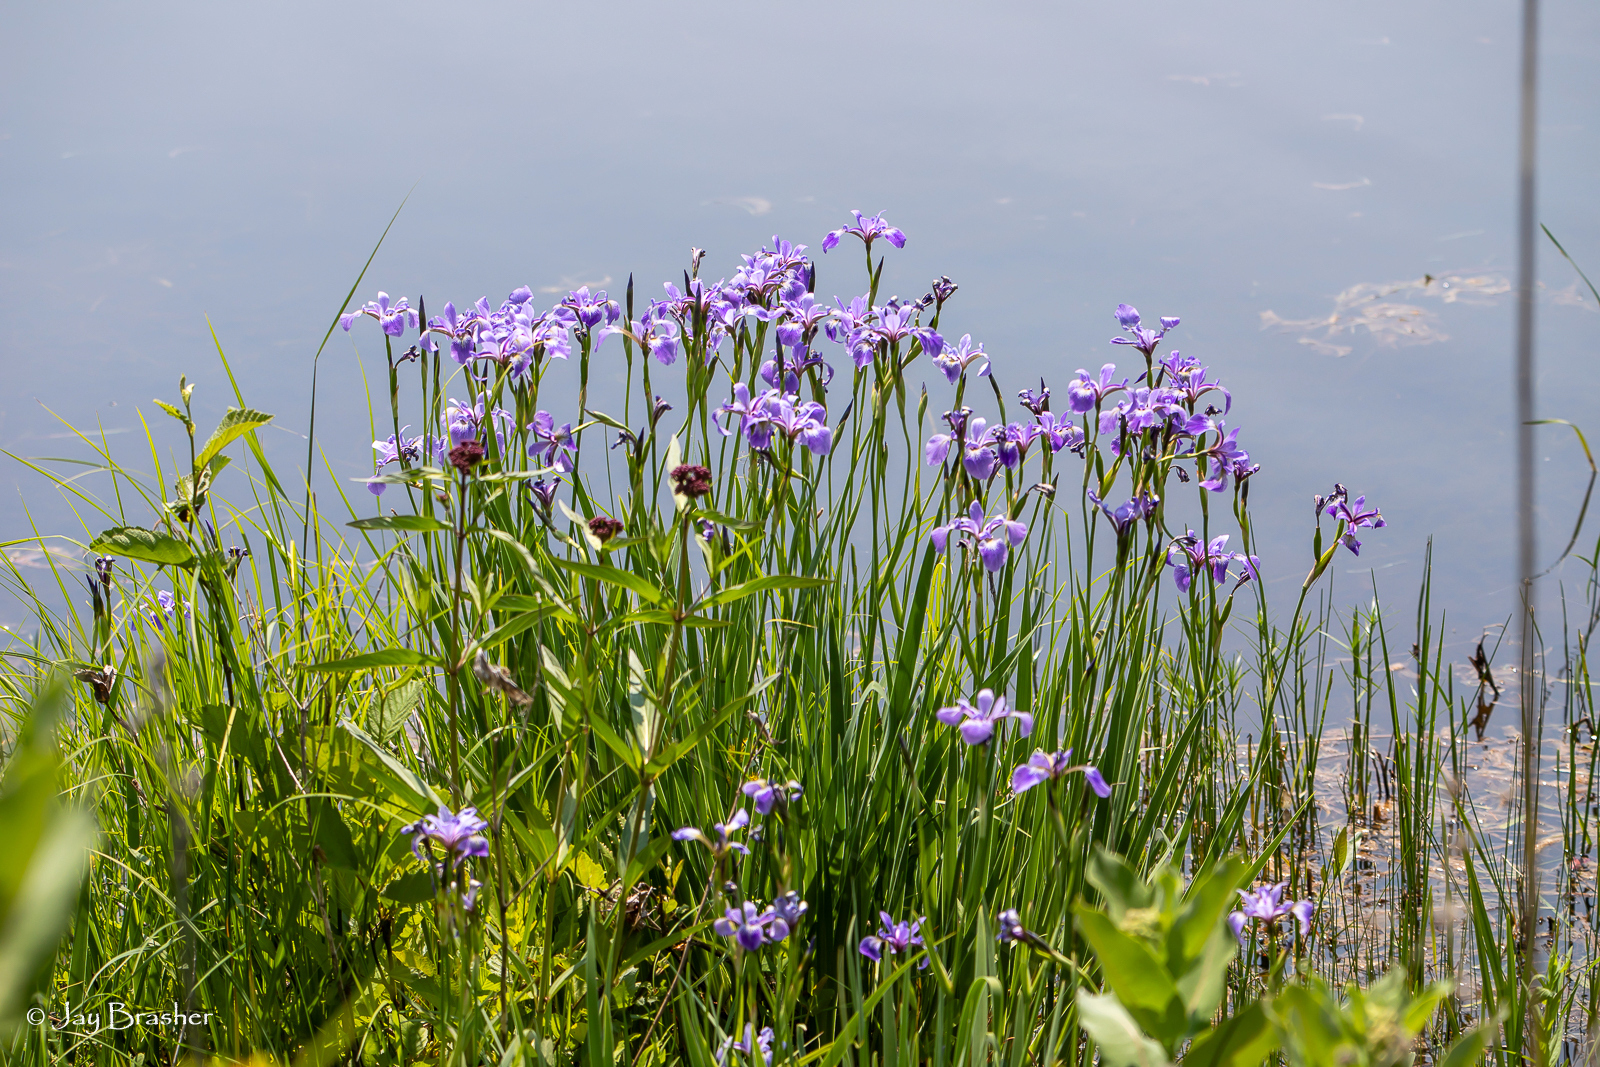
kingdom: Plantae
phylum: Tracheophyta
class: Liliopsida
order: Asparagales
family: Iridaceae
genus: Iris
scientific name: Iris versicolor
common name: Purple iris
